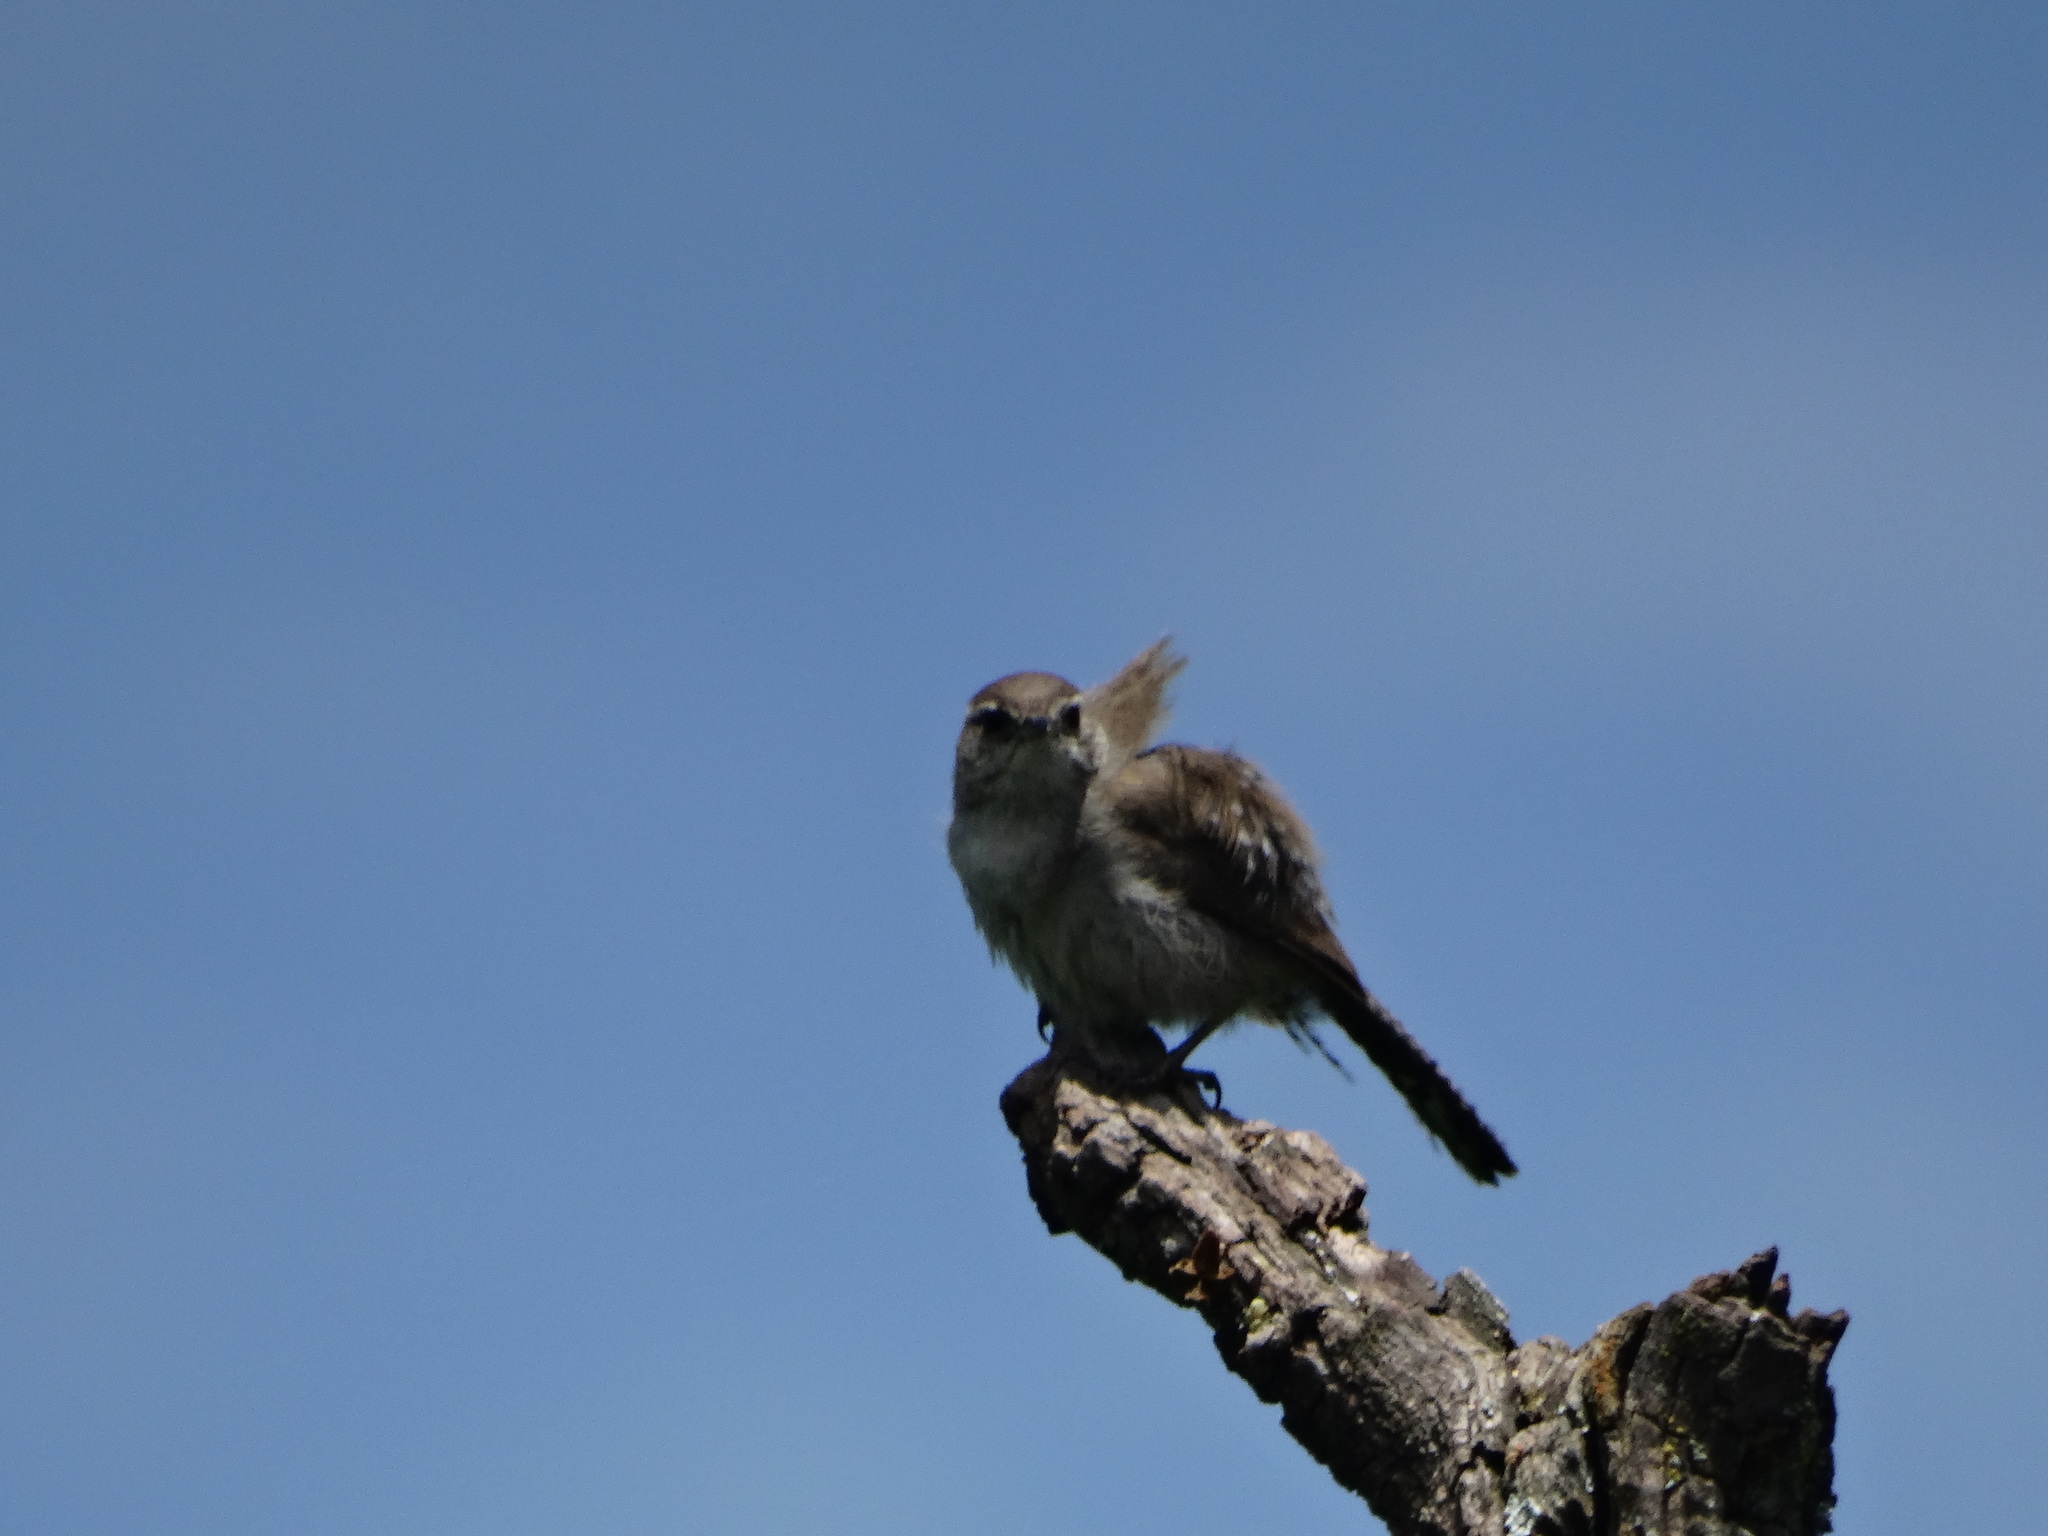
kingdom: Animalia
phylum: Chordata
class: Aves
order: Passeriformes
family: Troglodytidae
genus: Thryomanes
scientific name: Thryomanes bewickii
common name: Bewick's wren
